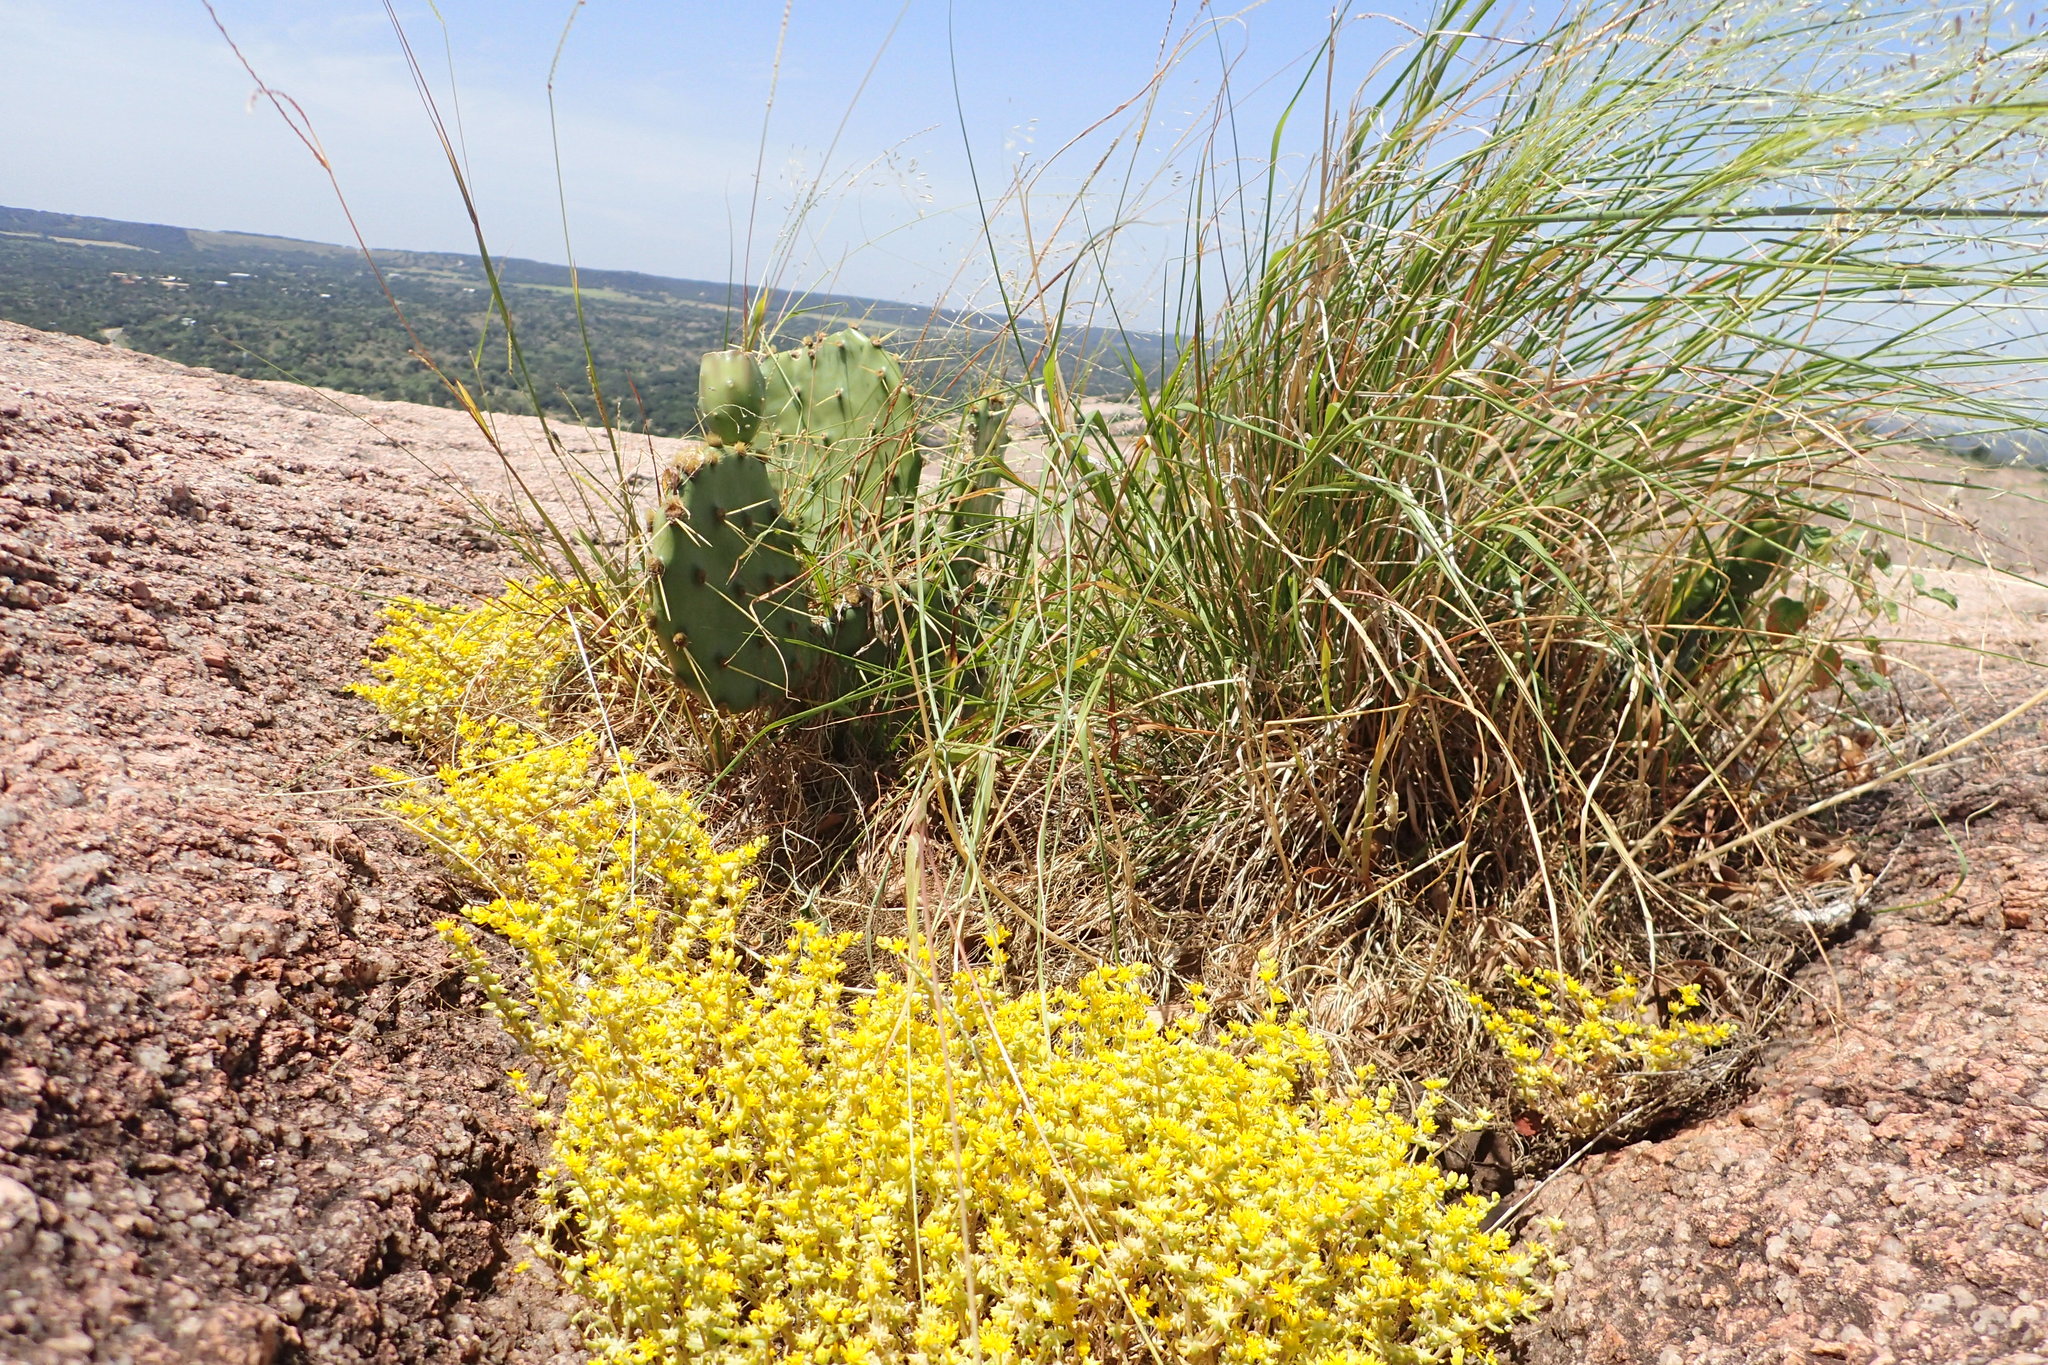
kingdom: Plantae
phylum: Tracheophyta
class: Magnoliopsida
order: Saxifragales
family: Crassulaceae
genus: Sedum
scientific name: Sedum nuttallii
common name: Yellow stonecrop
